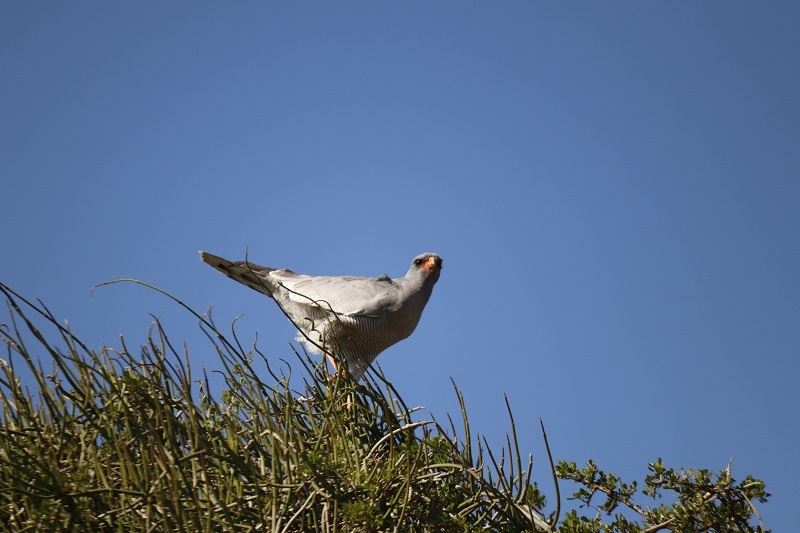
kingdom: Animalia
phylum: Chordata
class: Aves
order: Accipitriformes
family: Accipitridae
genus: Melierax
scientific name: Melierax canorus
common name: Pale chanting-goshawk
